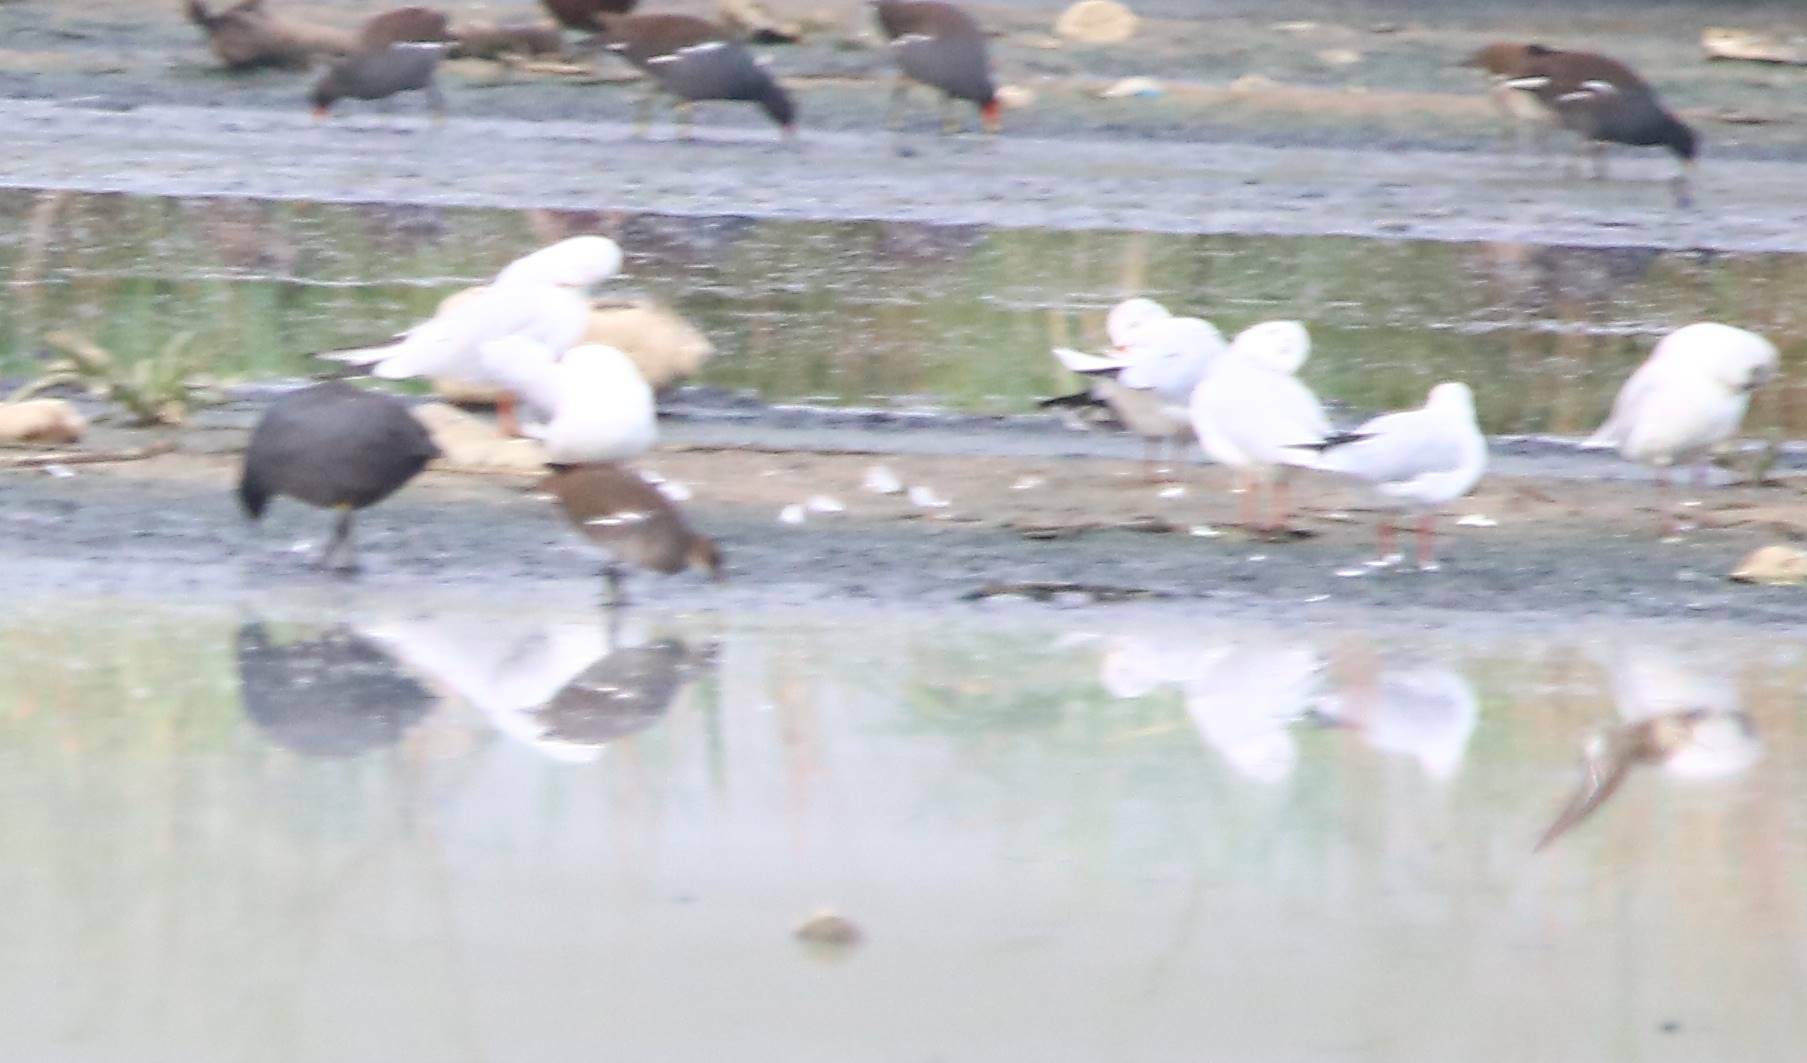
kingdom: Animalia
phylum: Chordata
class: Aves
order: Gruiformes
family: Rallidae
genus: Fulica
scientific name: Fulica atra
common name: Eurasian coot
